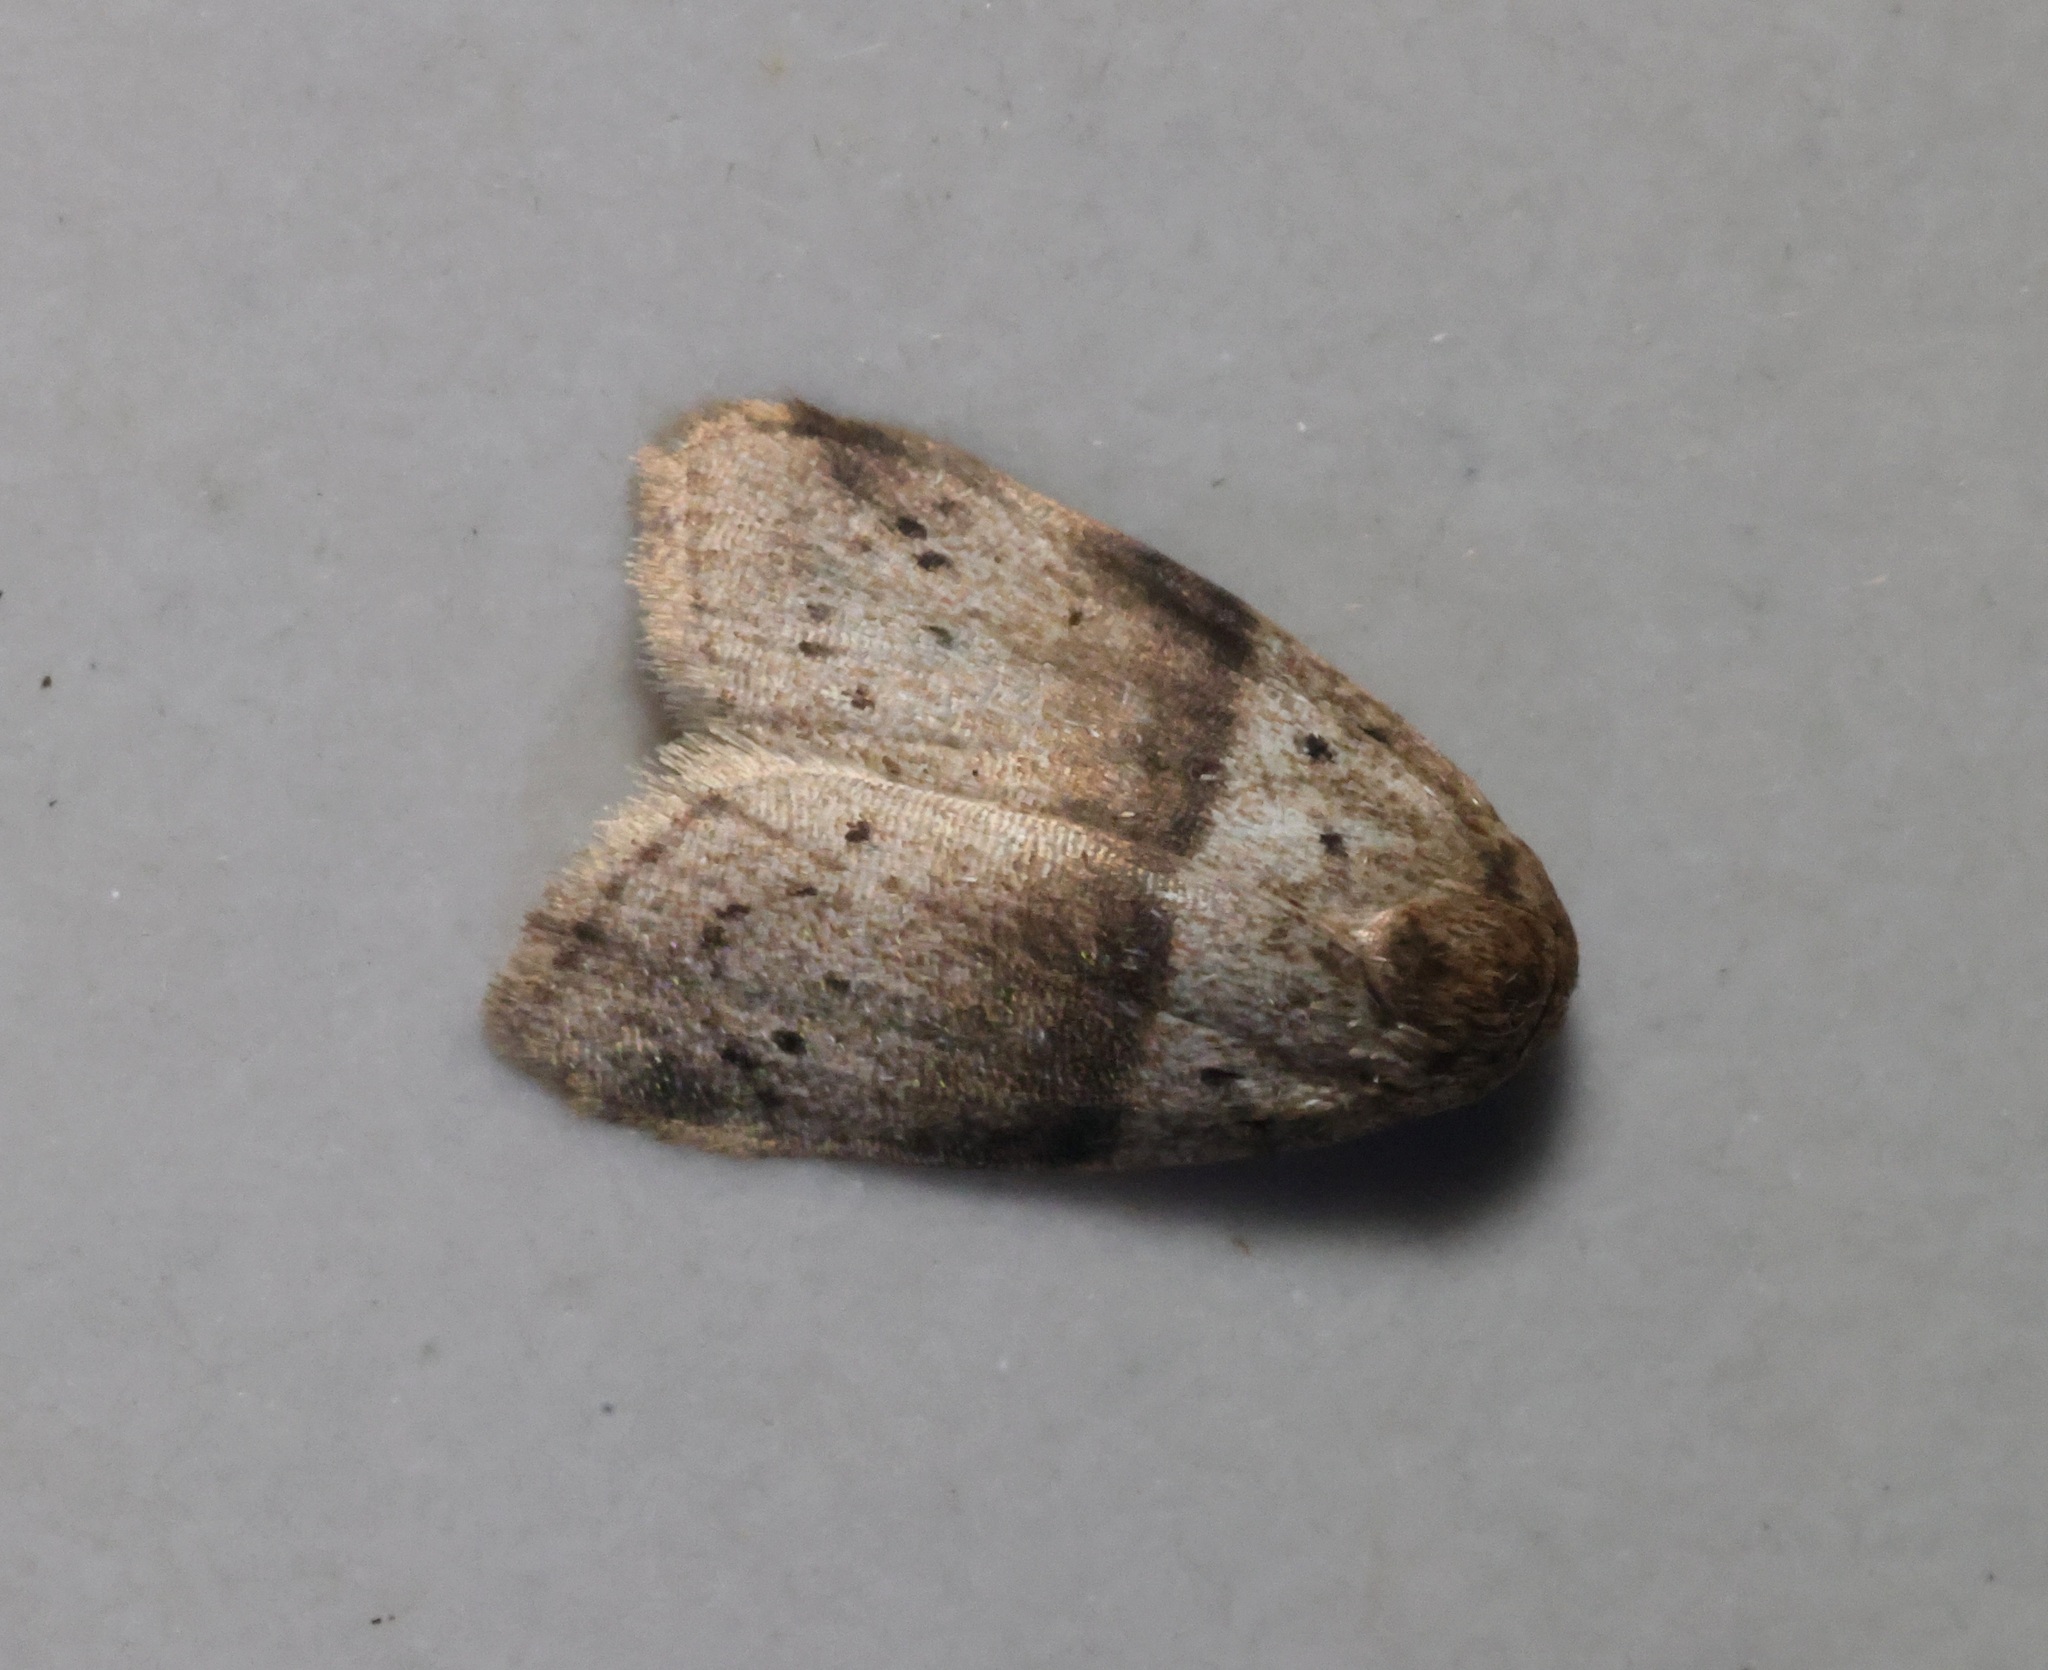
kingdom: Animalia
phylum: Arthropoda
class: Insecta
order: Lepidoptera
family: Erebidae
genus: Stictane
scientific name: Stictane rectilinea
